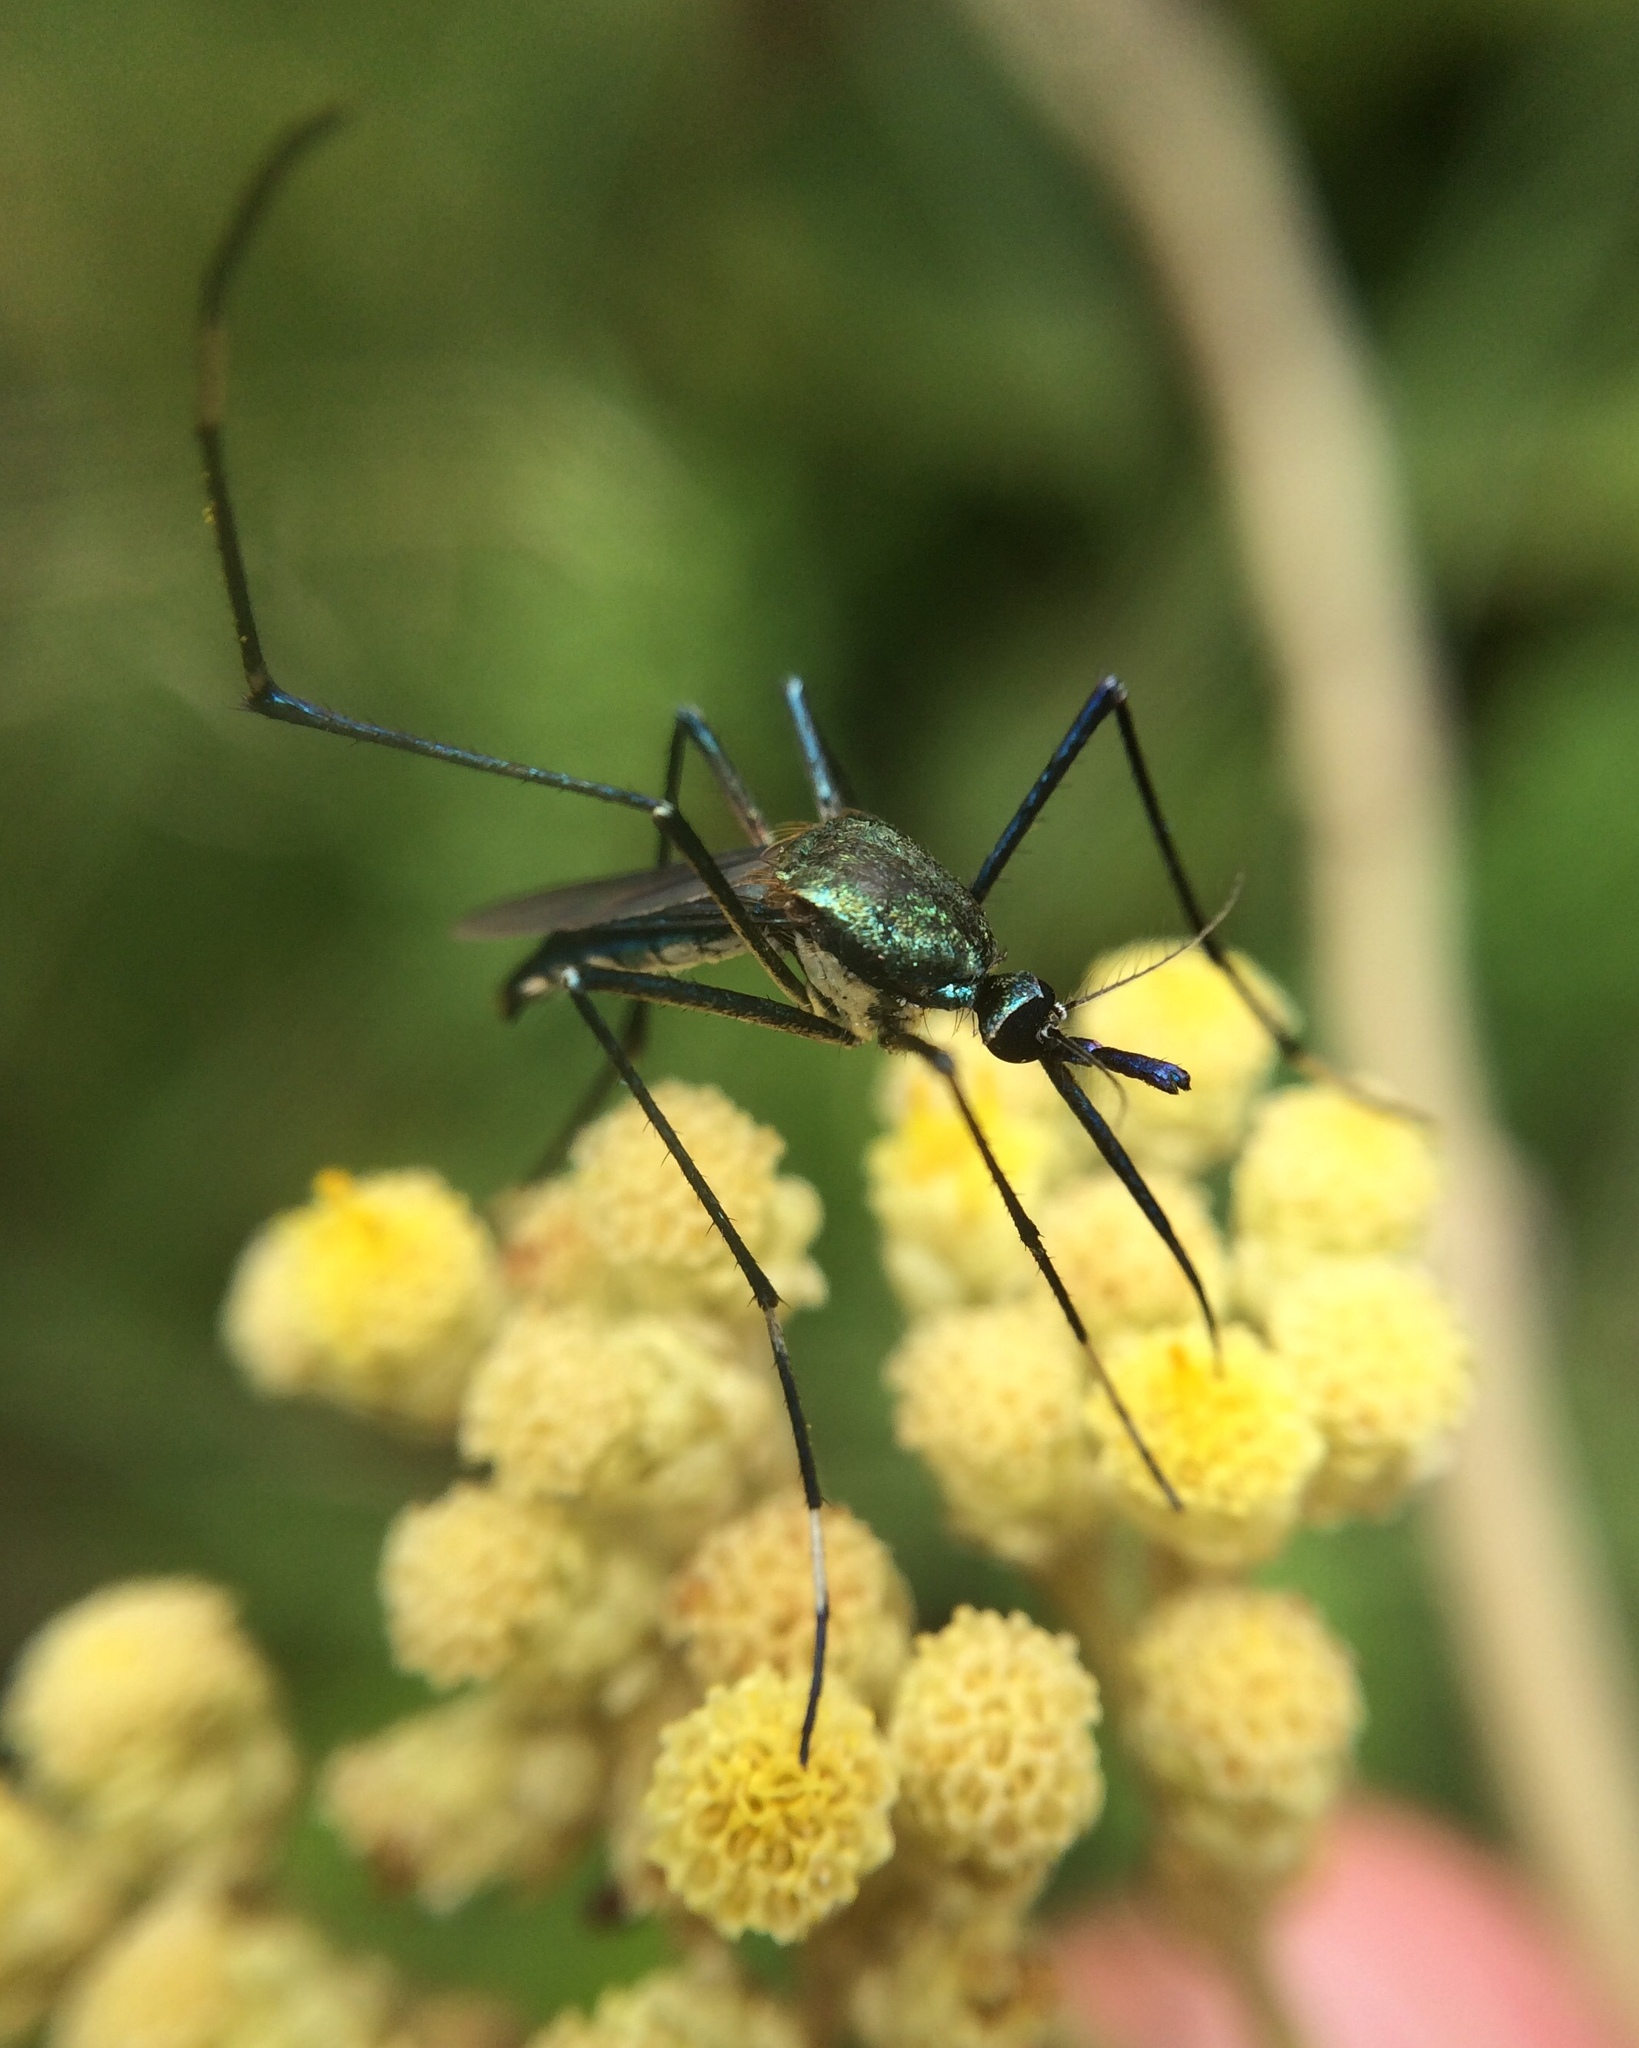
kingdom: Animalia
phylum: Arthropoda
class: Insecta
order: Diptera
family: Culicidae
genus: Toxorhynchites
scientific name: Toxorhynchites brevipalpis
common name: Mosquito
